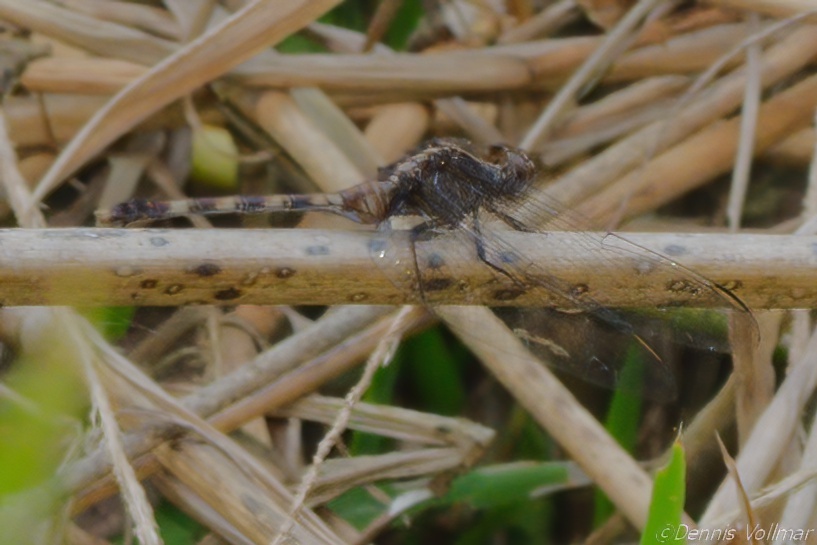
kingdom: Animalia
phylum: Arthropoda
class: Insecta
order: Odonata
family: Libellulidae
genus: Erythemis
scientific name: Erythemis plebeja
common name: Pin-tailed pondhawk
